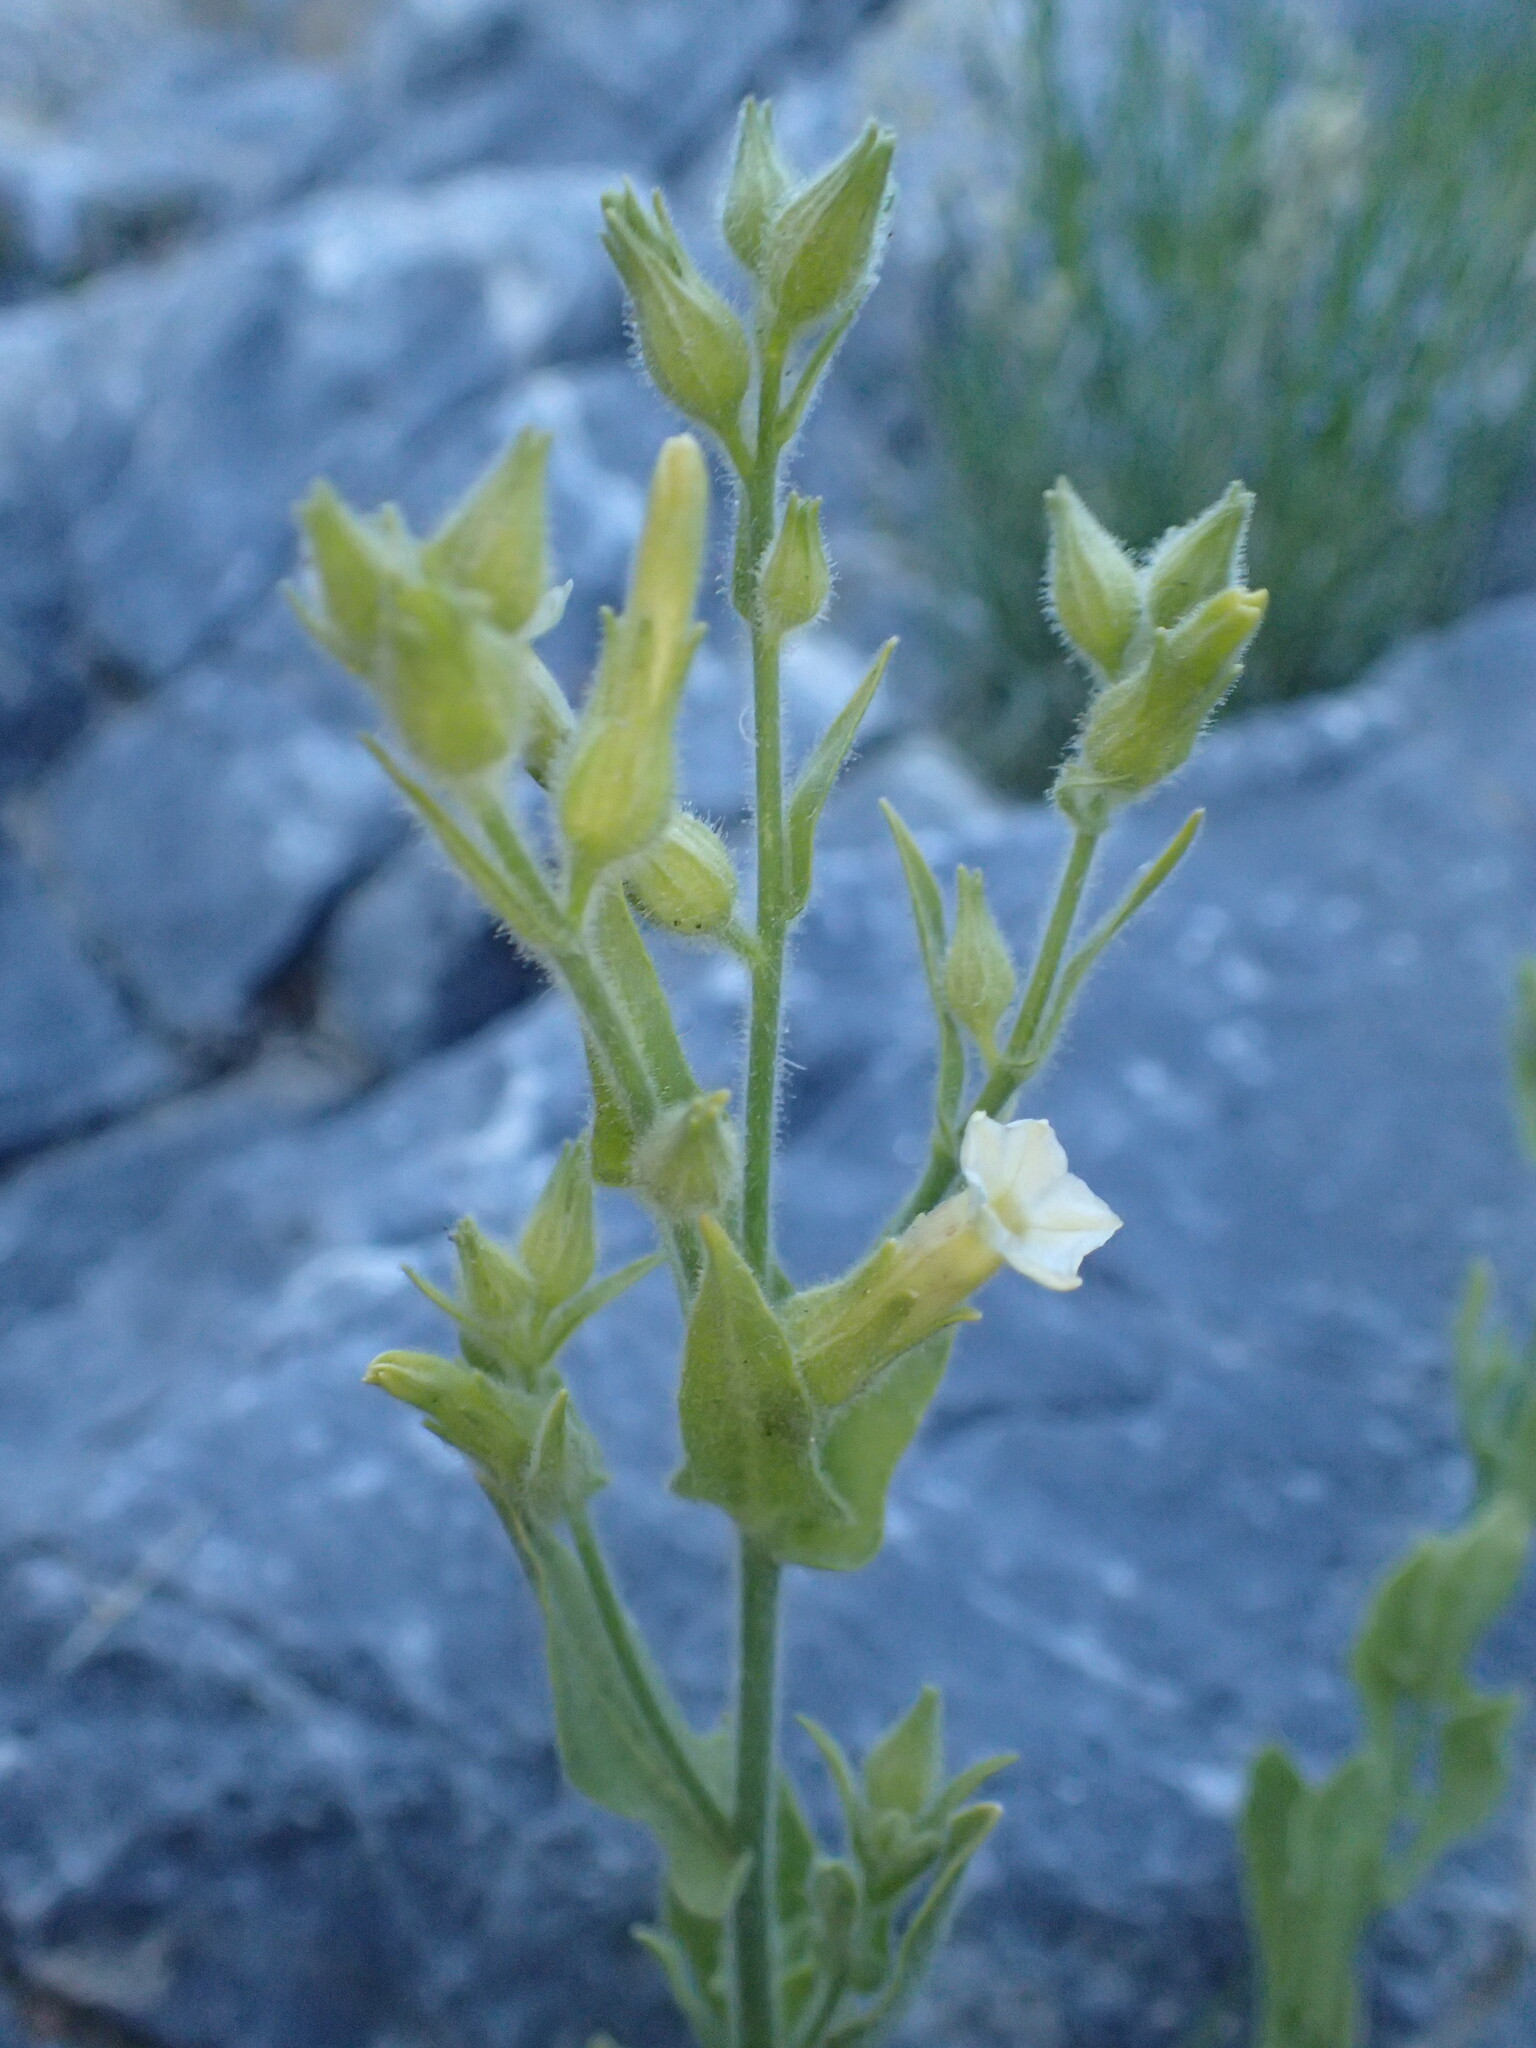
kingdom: Plantae
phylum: Tracheophyta
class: Magnoliopsida
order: Solanales
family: Solanaceae
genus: Nicotiana
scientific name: Nicotiana obtusifolia
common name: Desert tobacco
